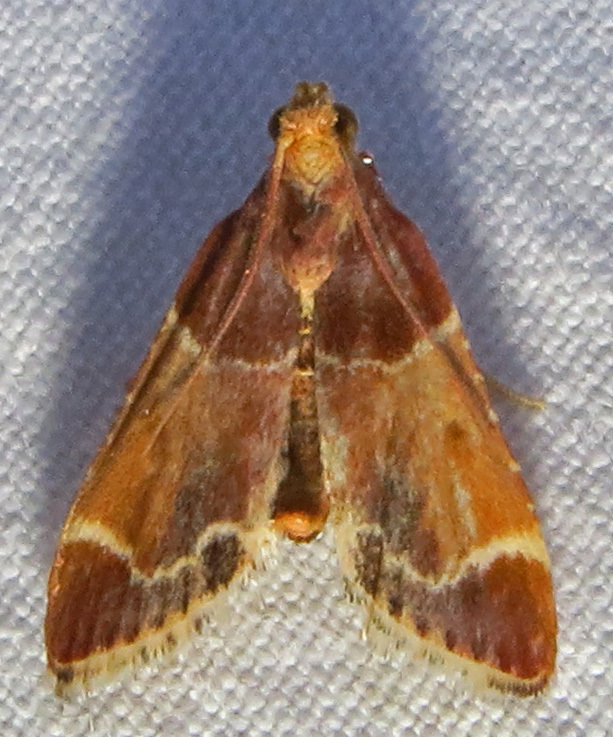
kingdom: Animalia
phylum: Arthropoda
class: Insecta
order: Lepidoptera
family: Pyralidae
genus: Pyralis
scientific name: Pyralis farinalis
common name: Meal moth
